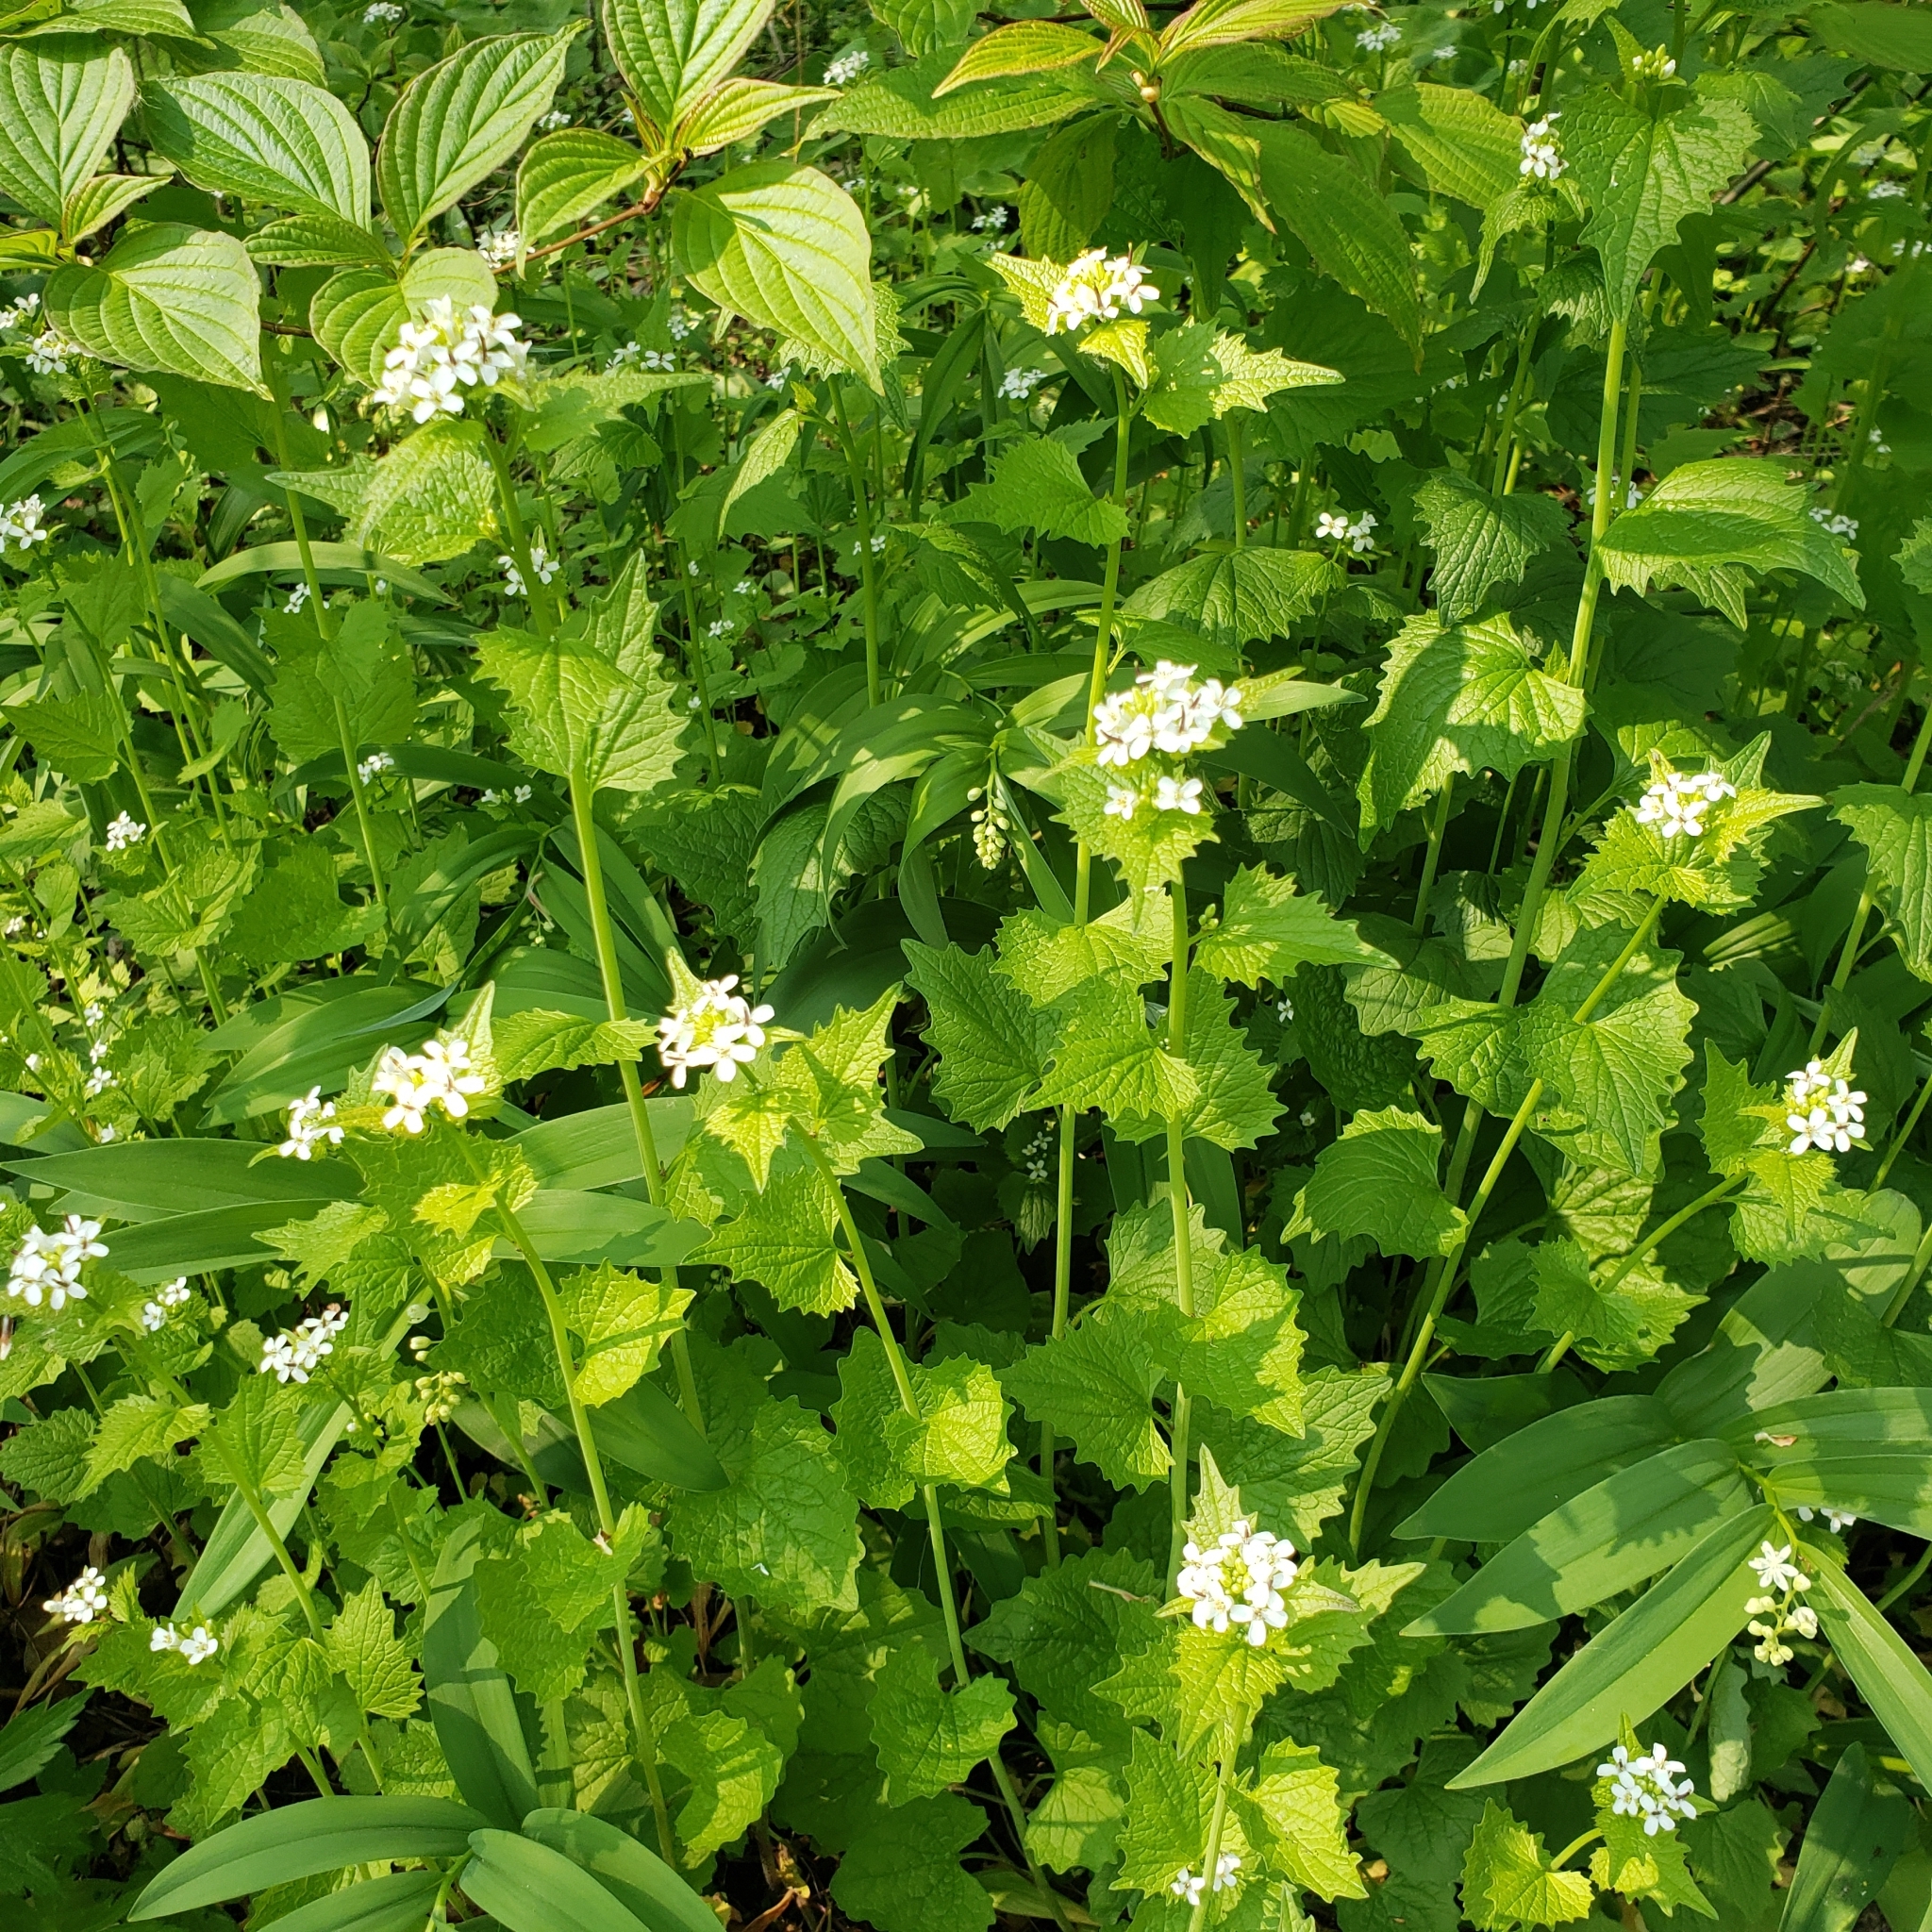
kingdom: Plantae
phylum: Tracheophyta
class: Magnoliopsida
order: Brassicales
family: Brassicaceae
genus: Alliaria
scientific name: Alliaria petiolata
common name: Garlic mustard
